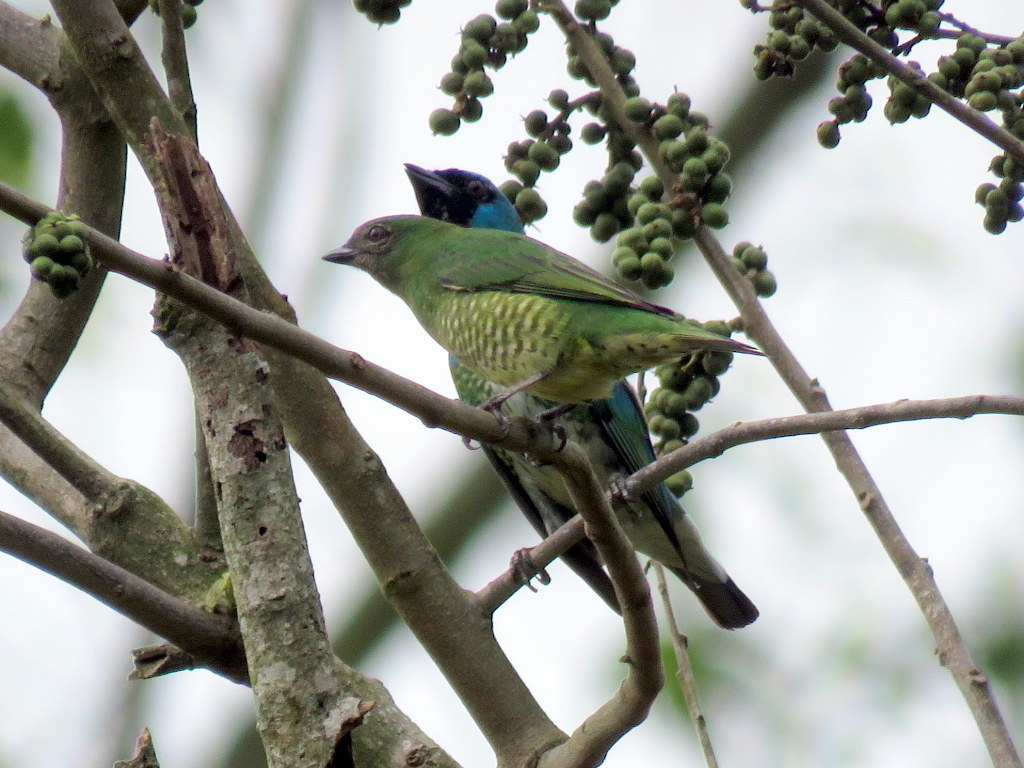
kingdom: Animalia
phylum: Chordata
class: Aves
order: Passeriformes
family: Thraupidae
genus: Tersina
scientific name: Tersina viridis
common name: Swallow tanager
